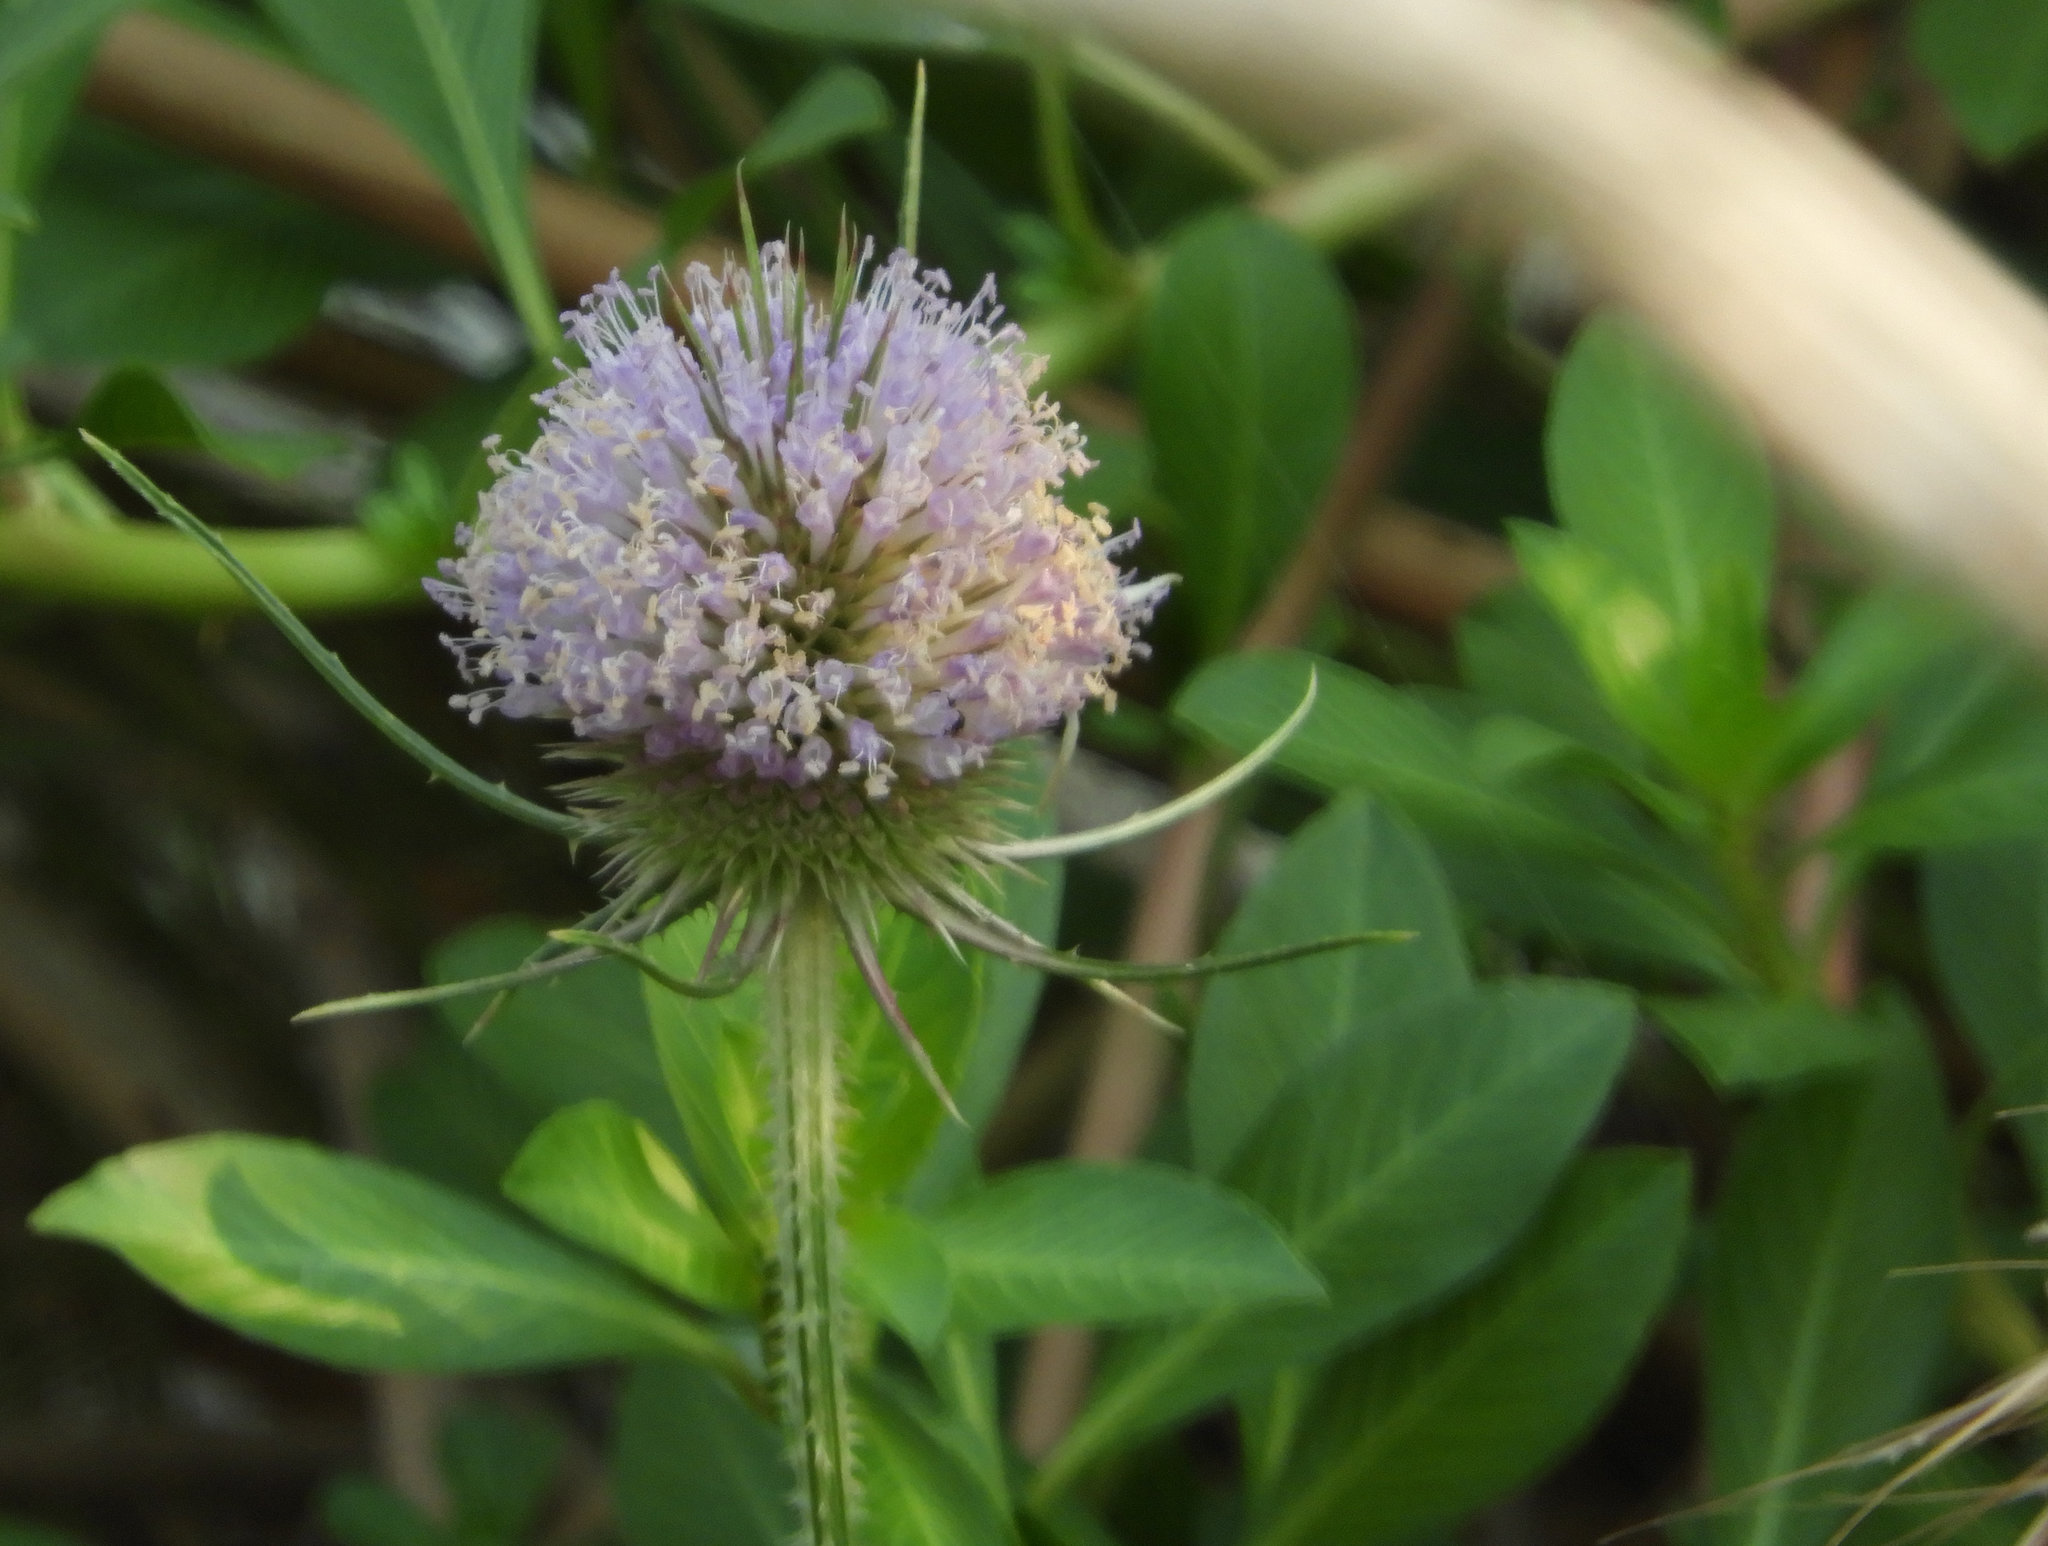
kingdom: Plantae
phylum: Tracheophyta
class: Magnoliopsida
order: Dipsacales
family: Caprifoliaceae
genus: Dipsacus
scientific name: Dipsacus fullonum
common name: Teasel
